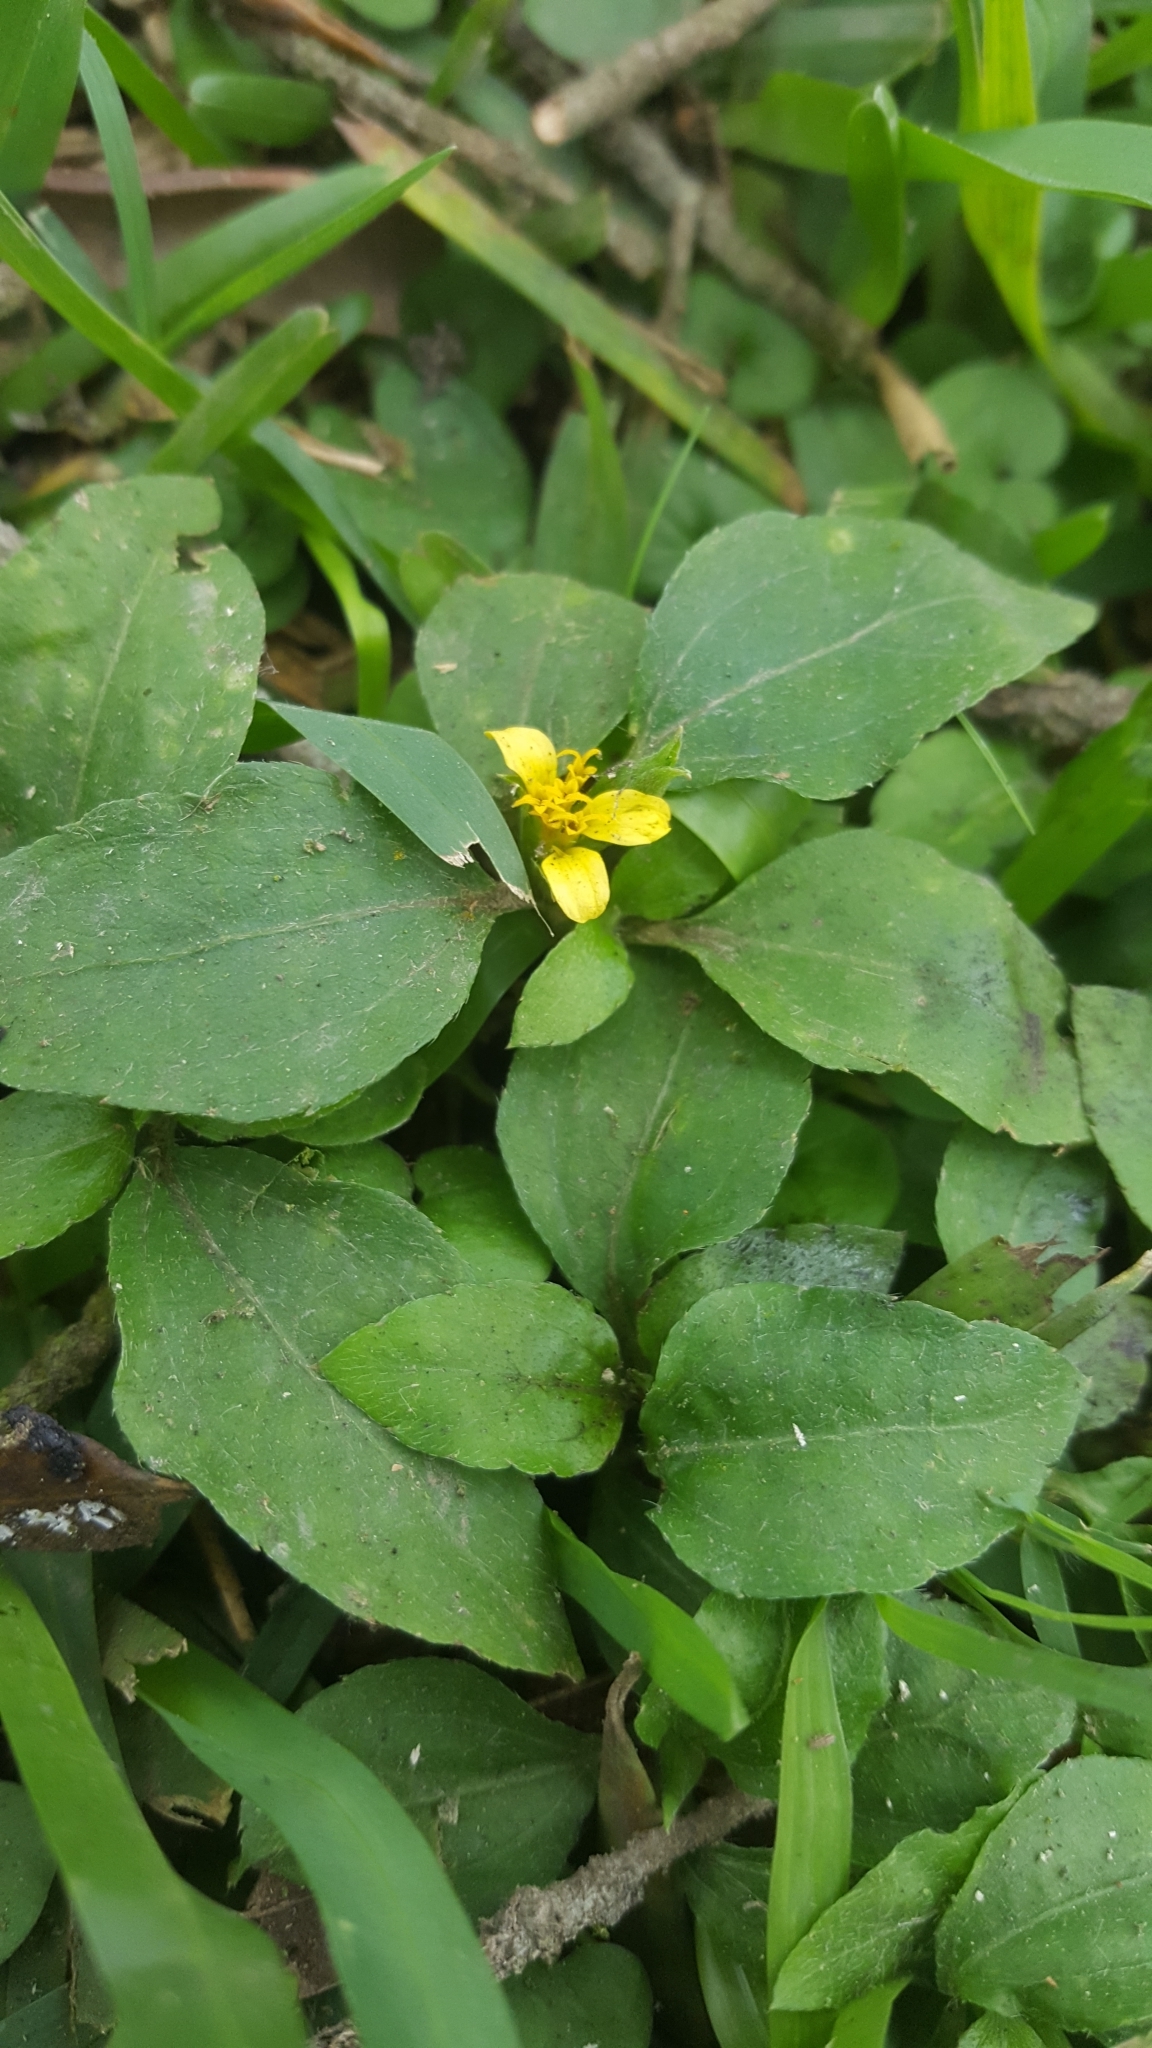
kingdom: Plantae
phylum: Tracheophyta
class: Magnoliopsida
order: Asterales
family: Asteraceae
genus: Synedrella
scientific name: Synedrella nodiflora
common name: Nodeweed
